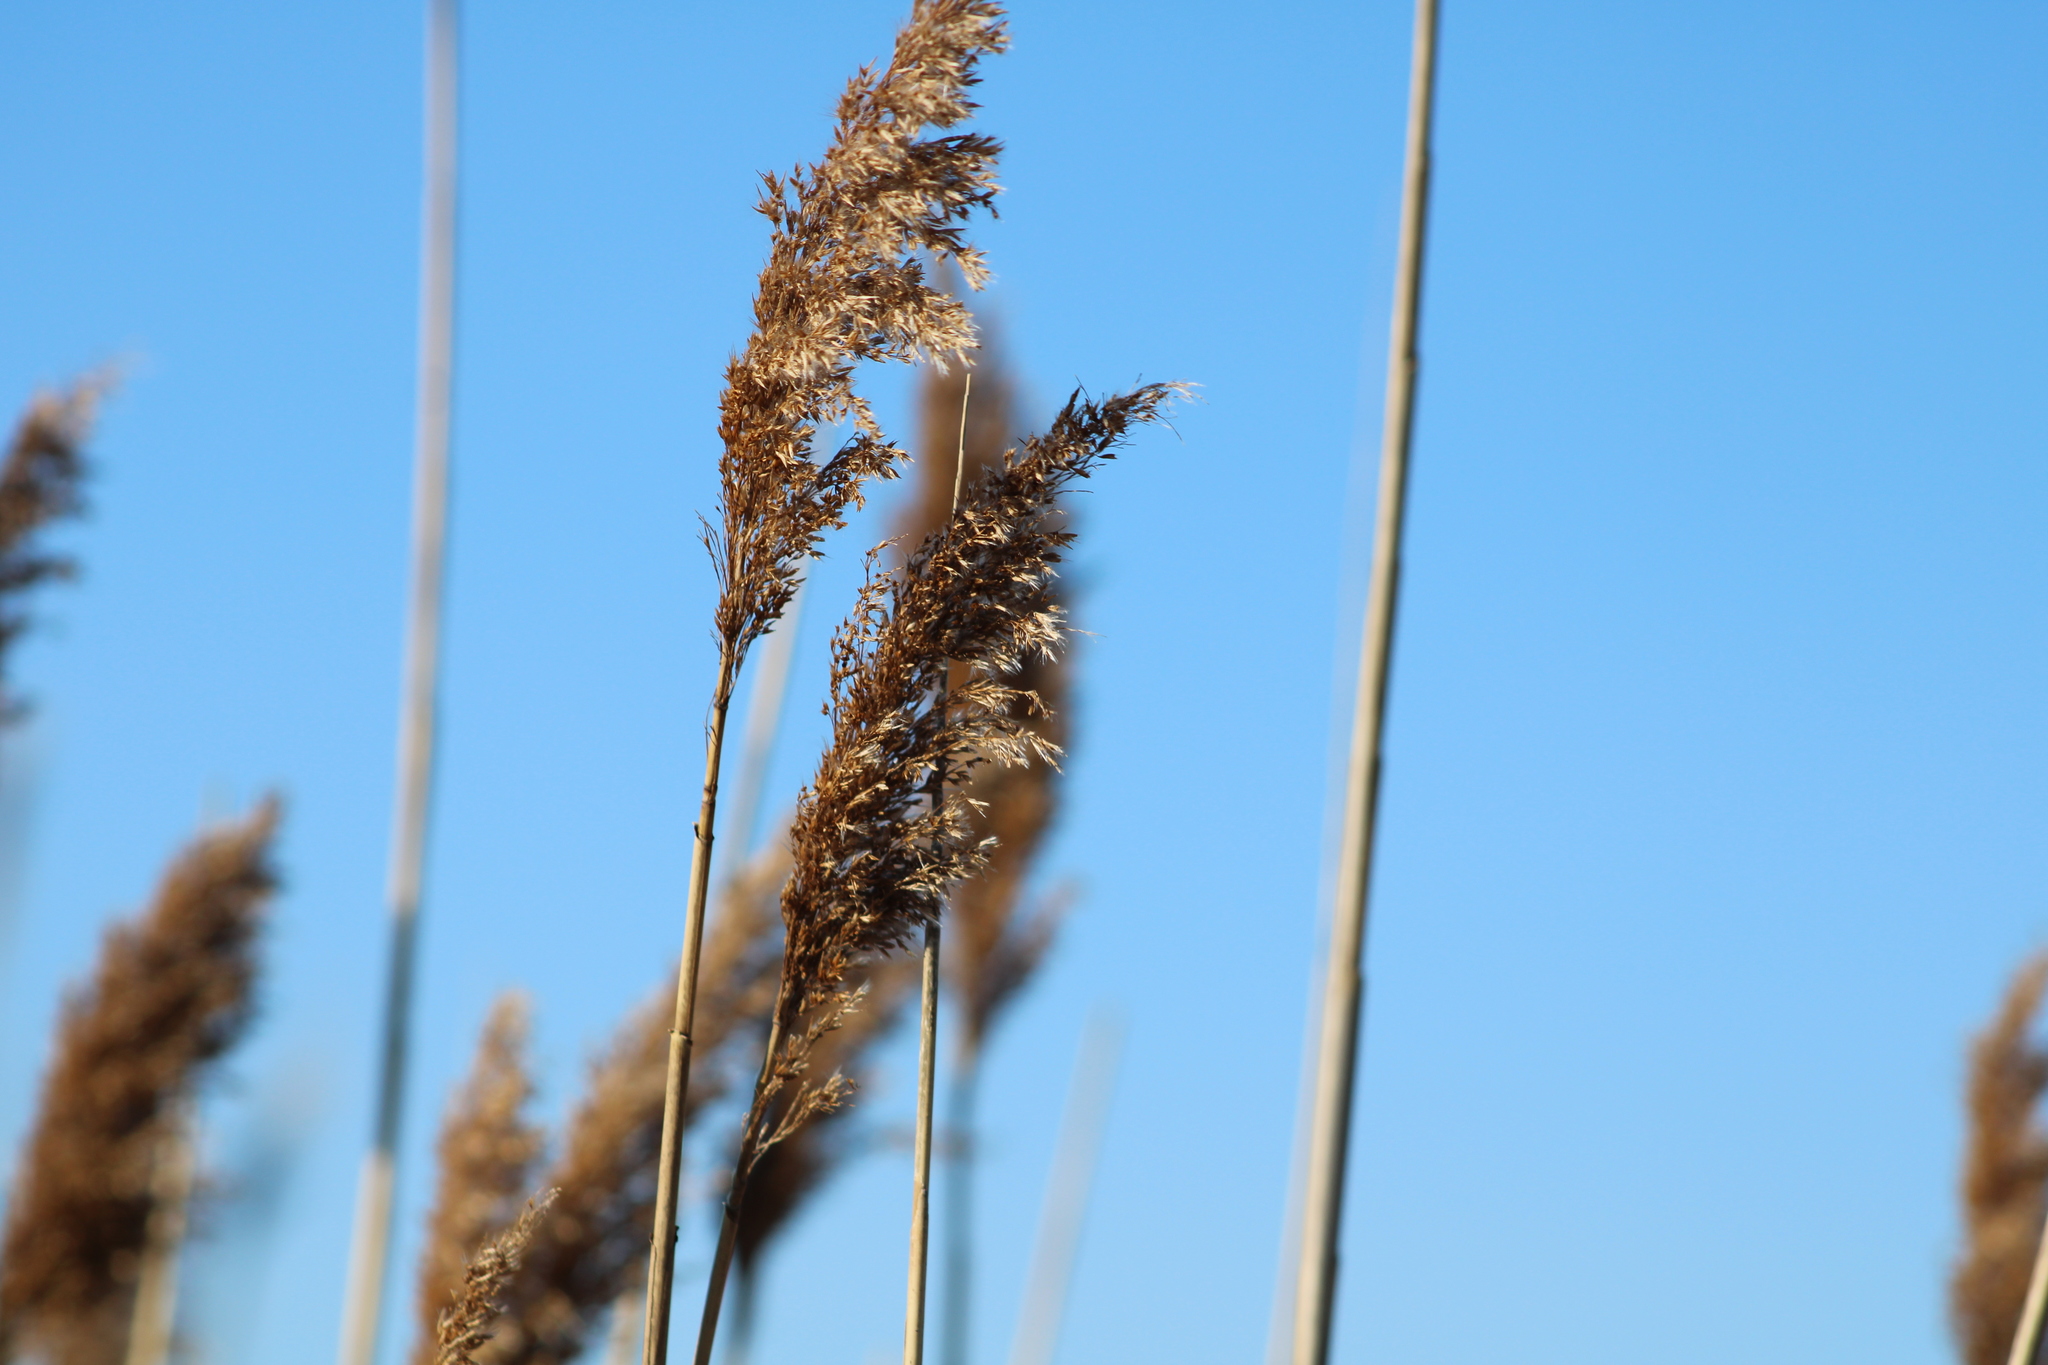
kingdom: Plantae
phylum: Tracheophyta
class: Liliopsida
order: Poales
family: Poaceae
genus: Phragmites
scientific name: Phragmites australis
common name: Common reed
